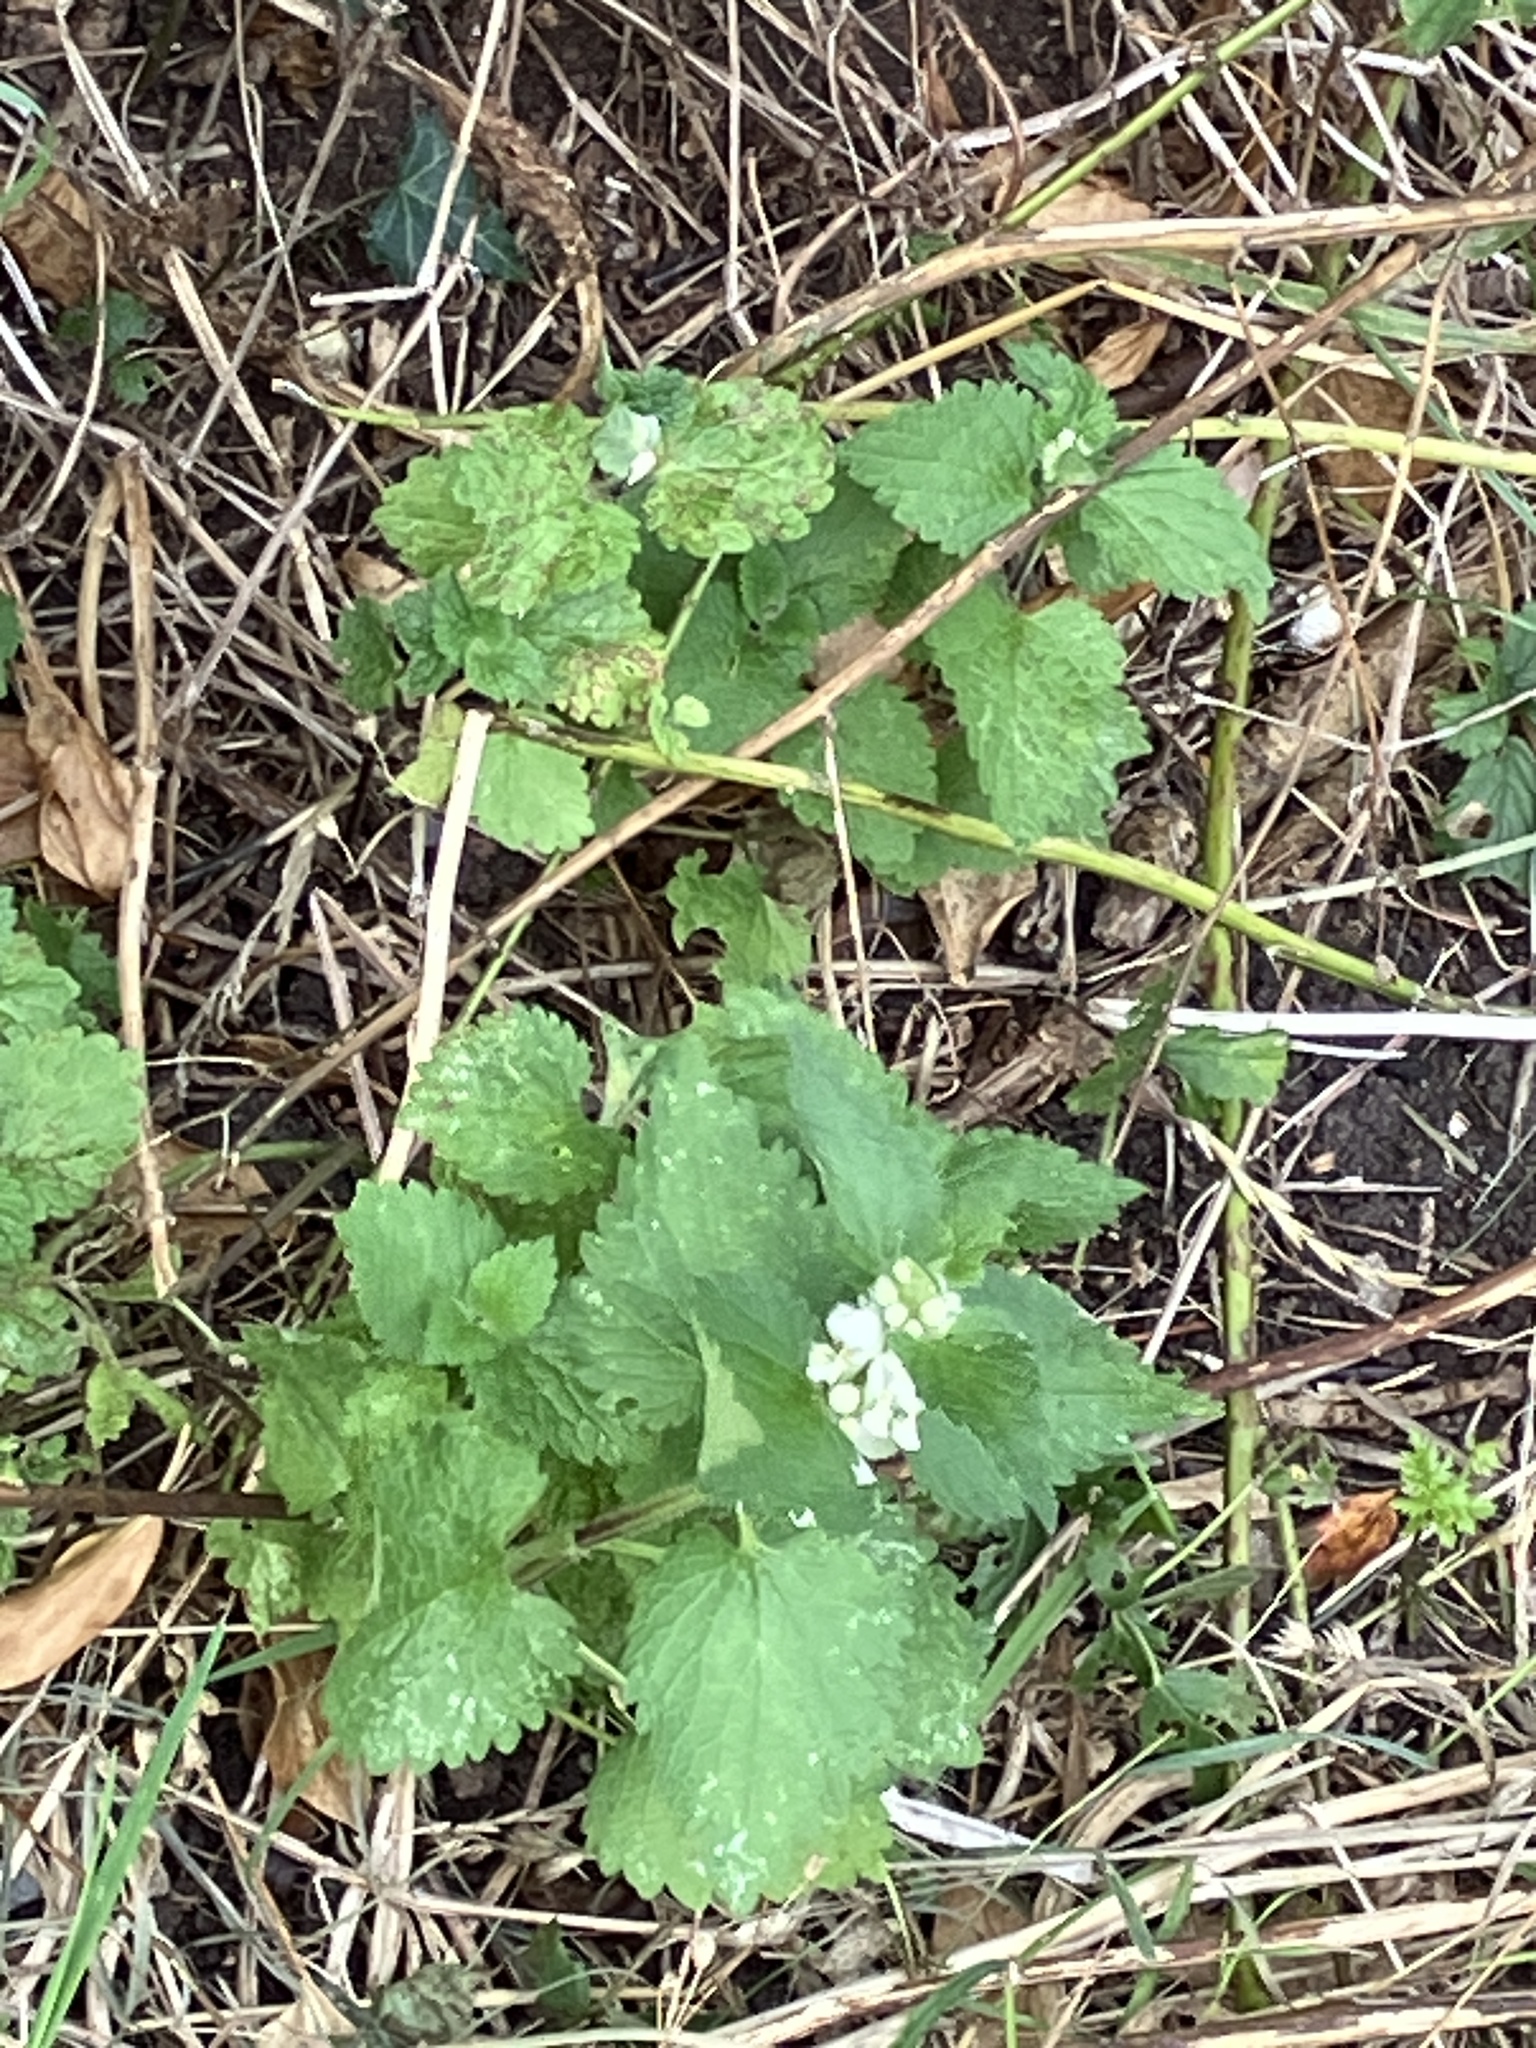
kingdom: Plantae
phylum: Tracheophyta
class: Magnoliopsida
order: Lamiales
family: Lamiaceae
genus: Lamium
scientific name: Lamium album
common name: White dead-nettle
